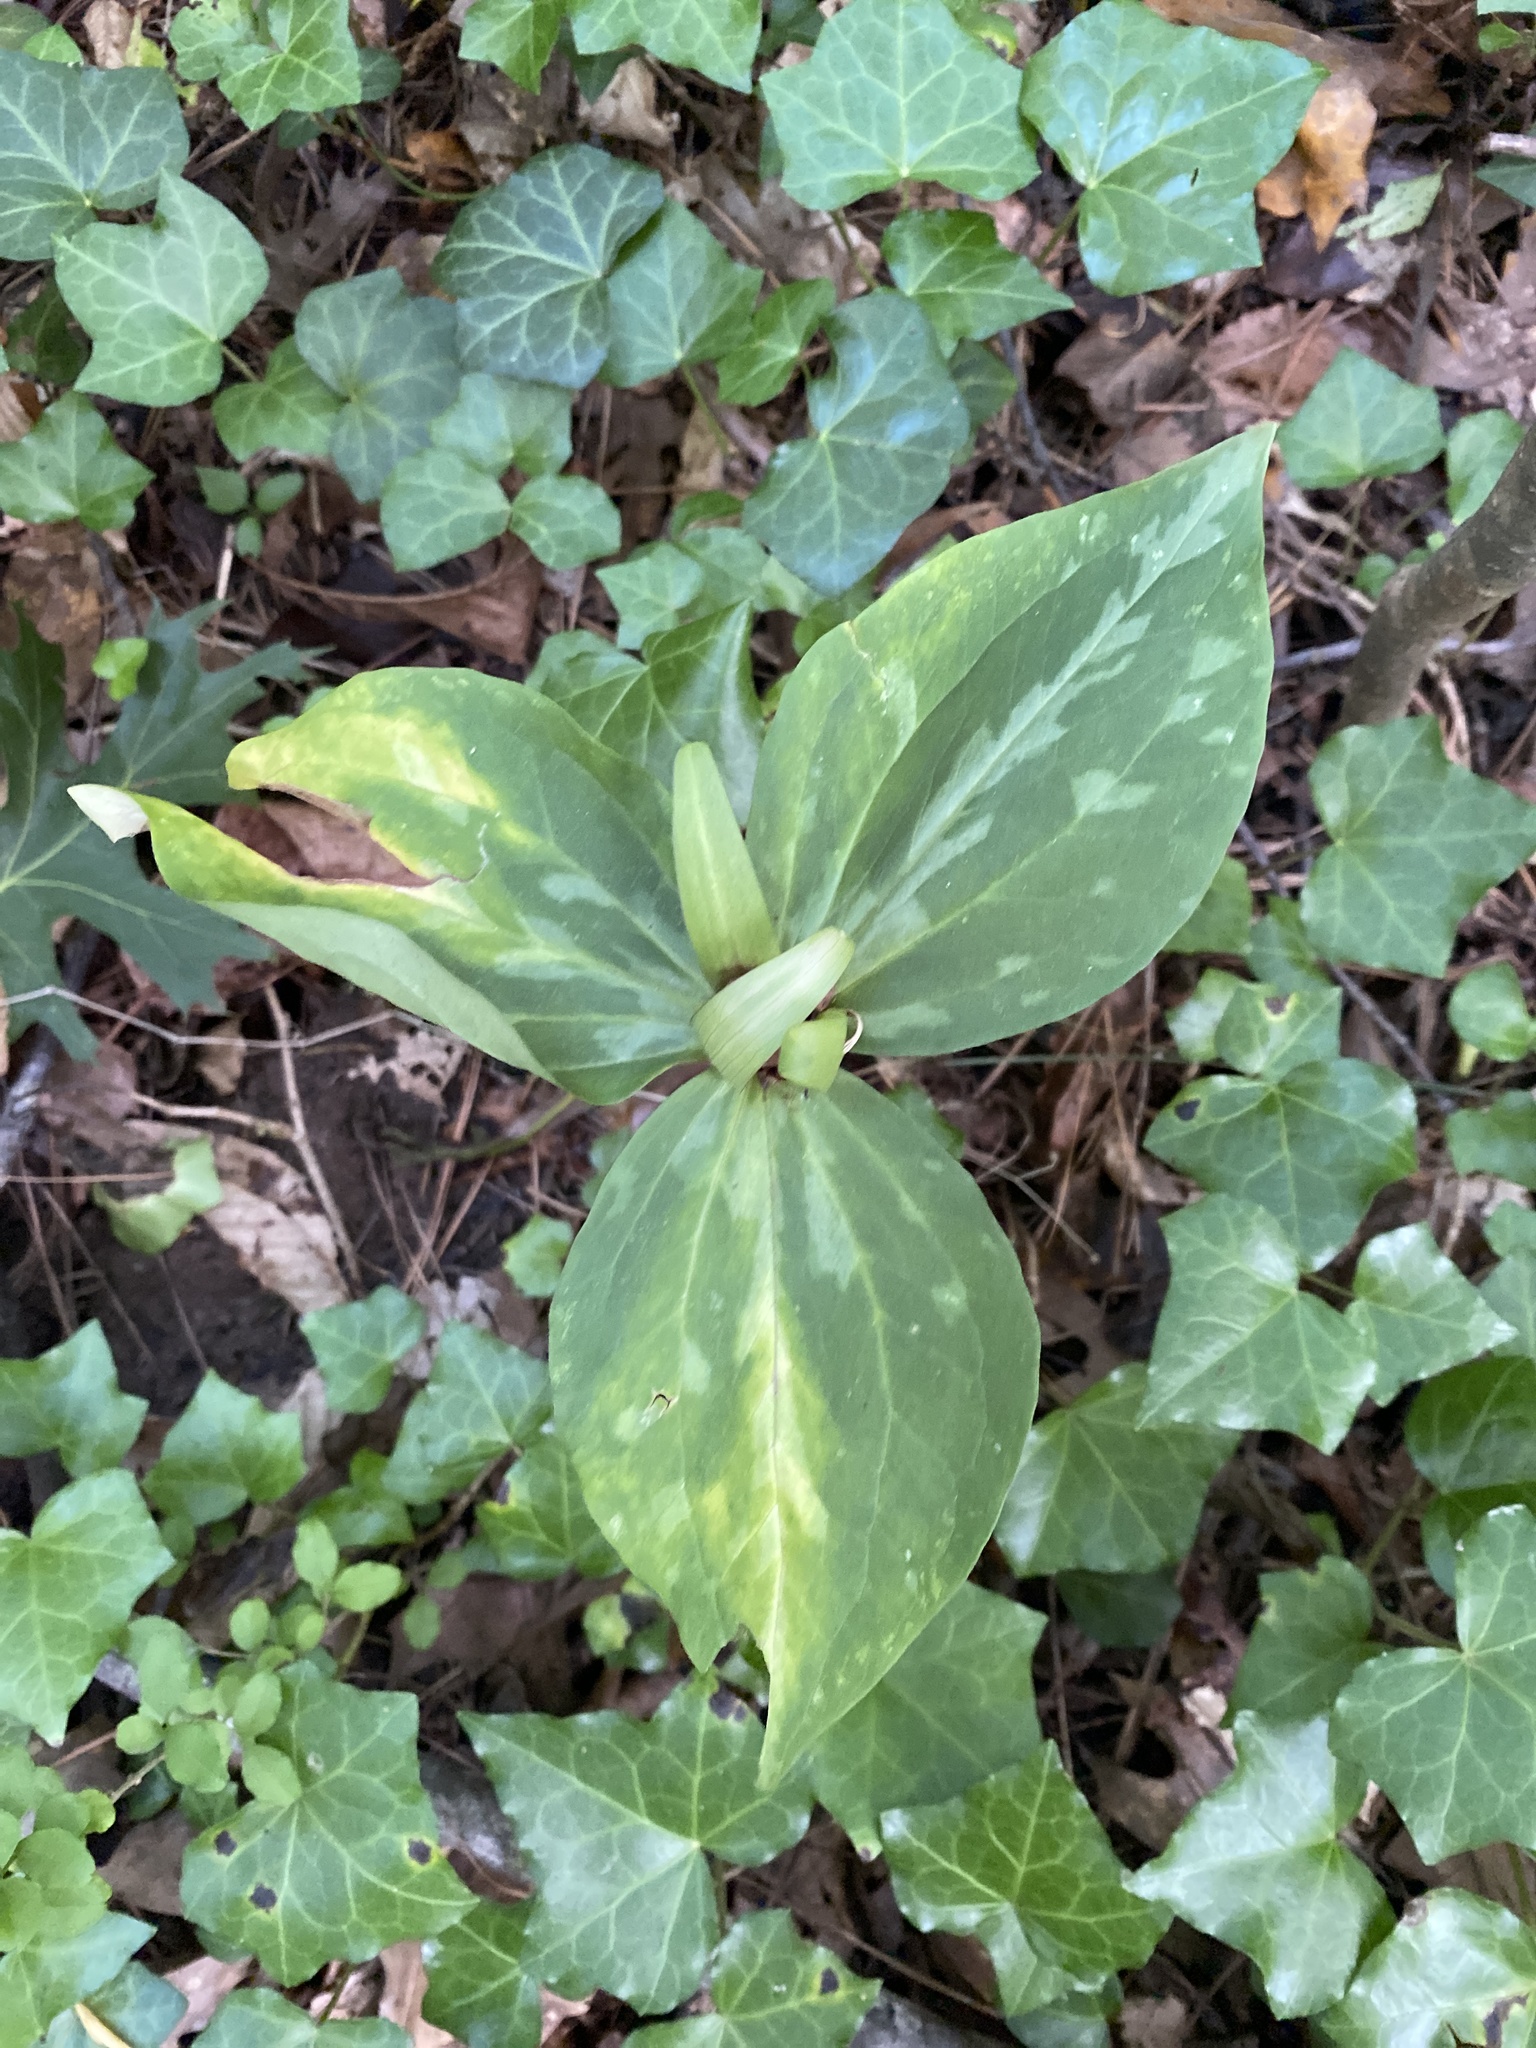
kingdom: Plantae
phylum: Tracheophyta
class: Liliopsida
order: Liliales
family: Melanthiaceae
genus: Trillium
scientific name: Trillium cuneatum
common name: Cuneate trillium
